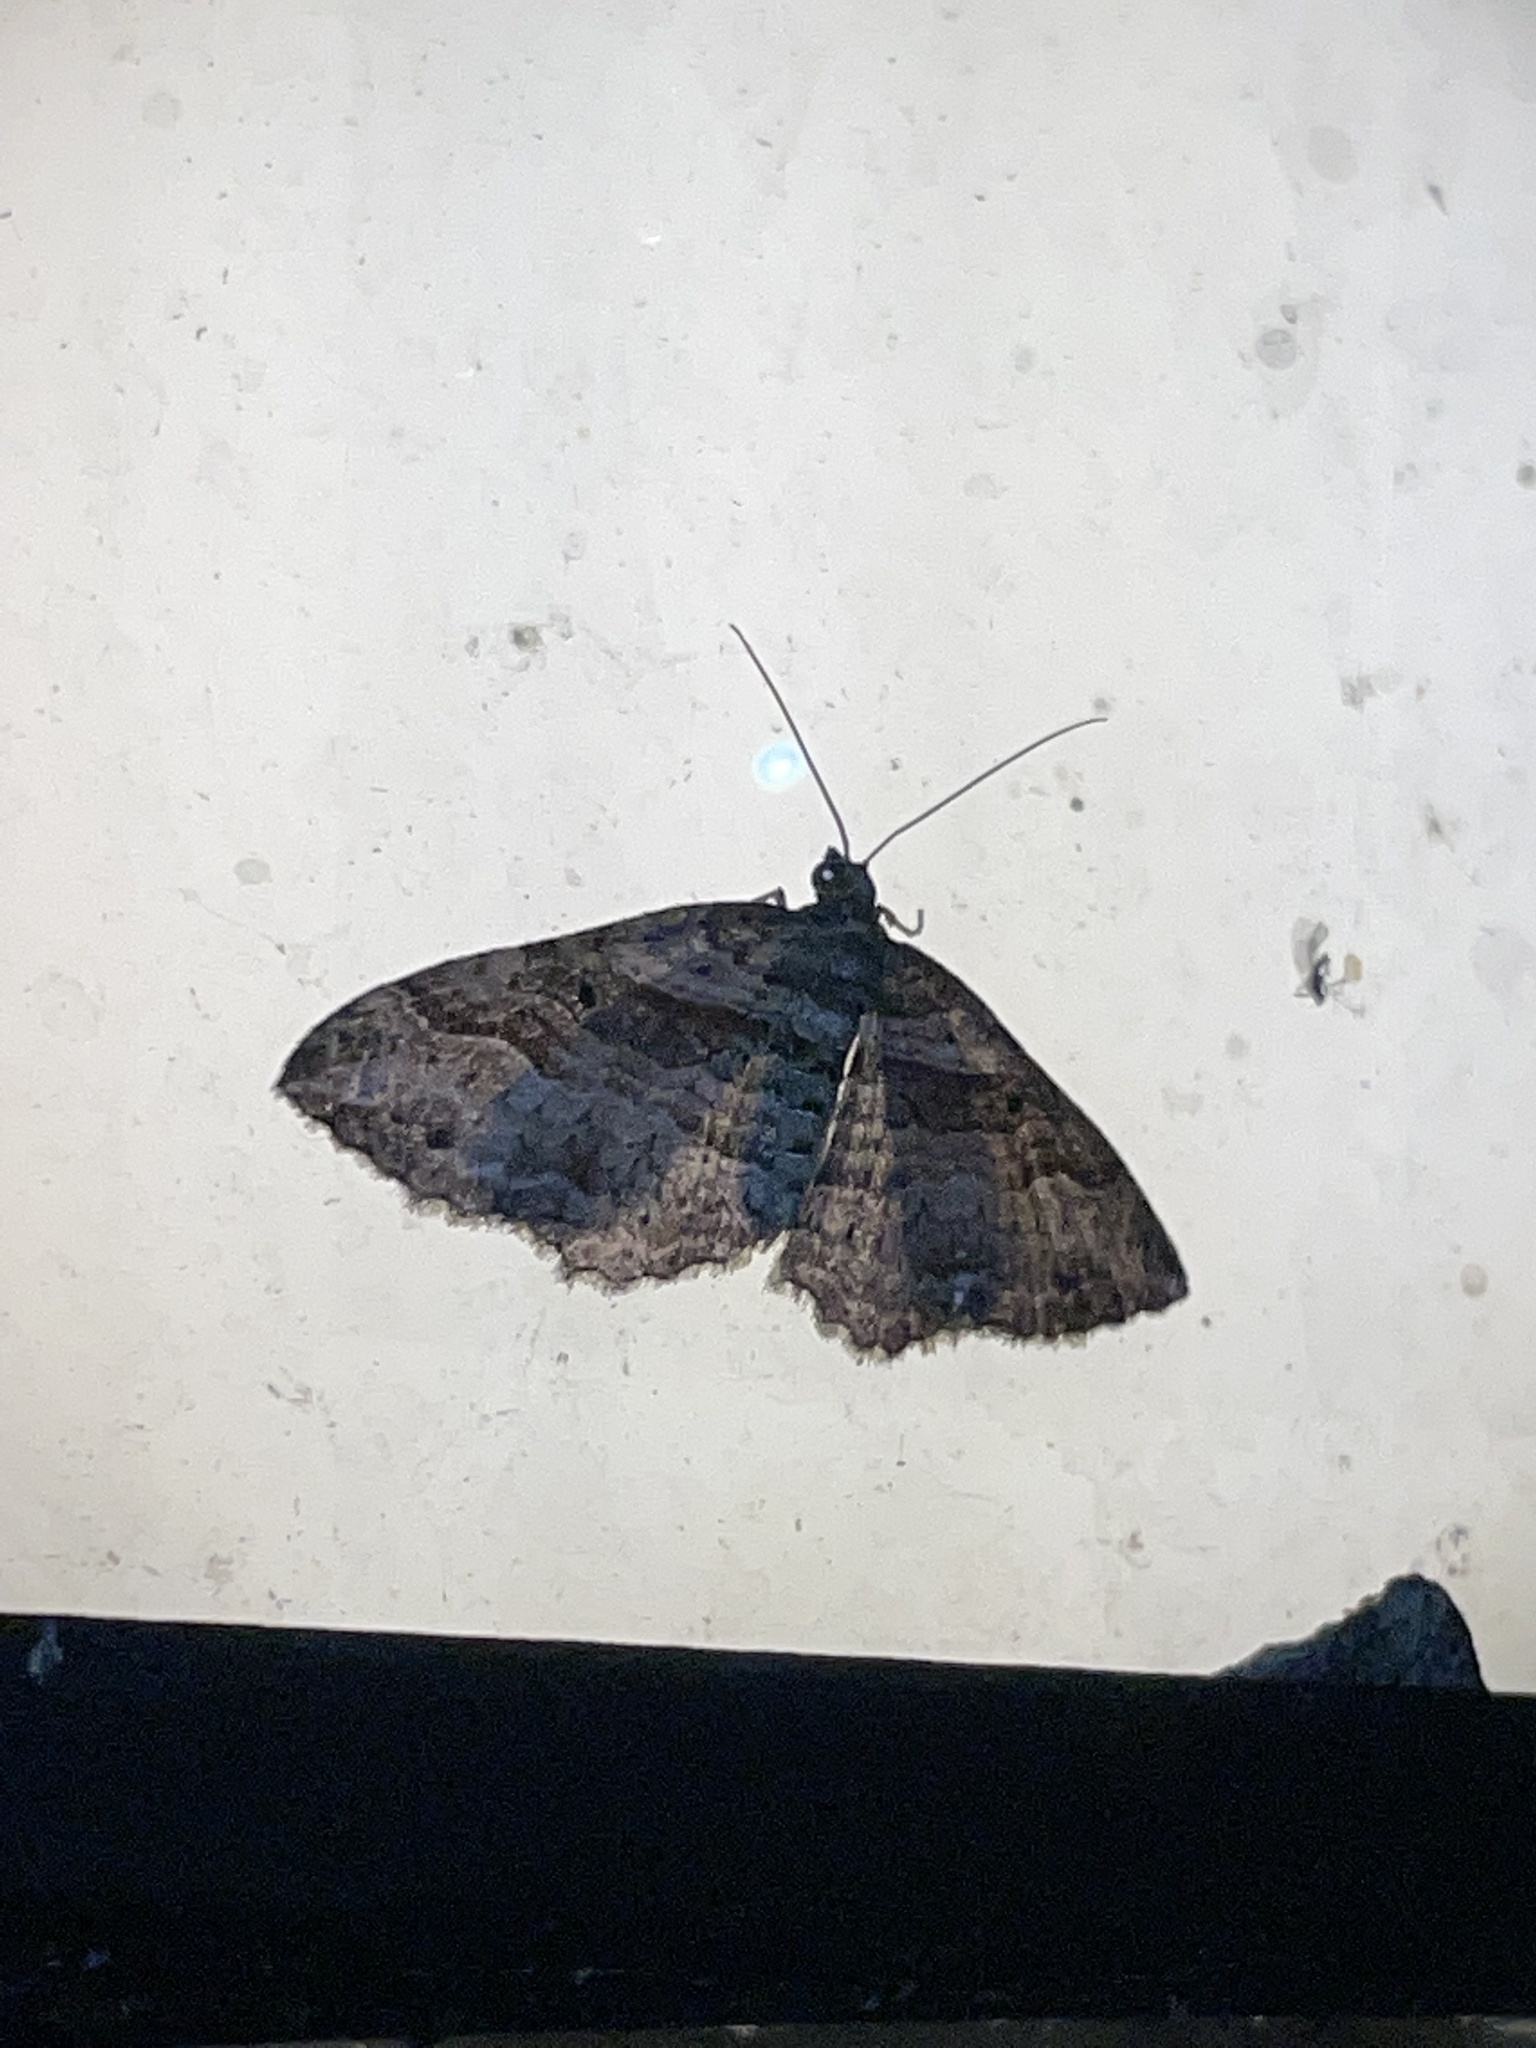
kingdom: Animalia
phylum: Arthropoda
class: Insecta
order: Lepidoptera
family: Geometridae
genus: Costaconvexa
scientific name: Costaconvexa centrostrigaria
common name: Bent-line carpet
